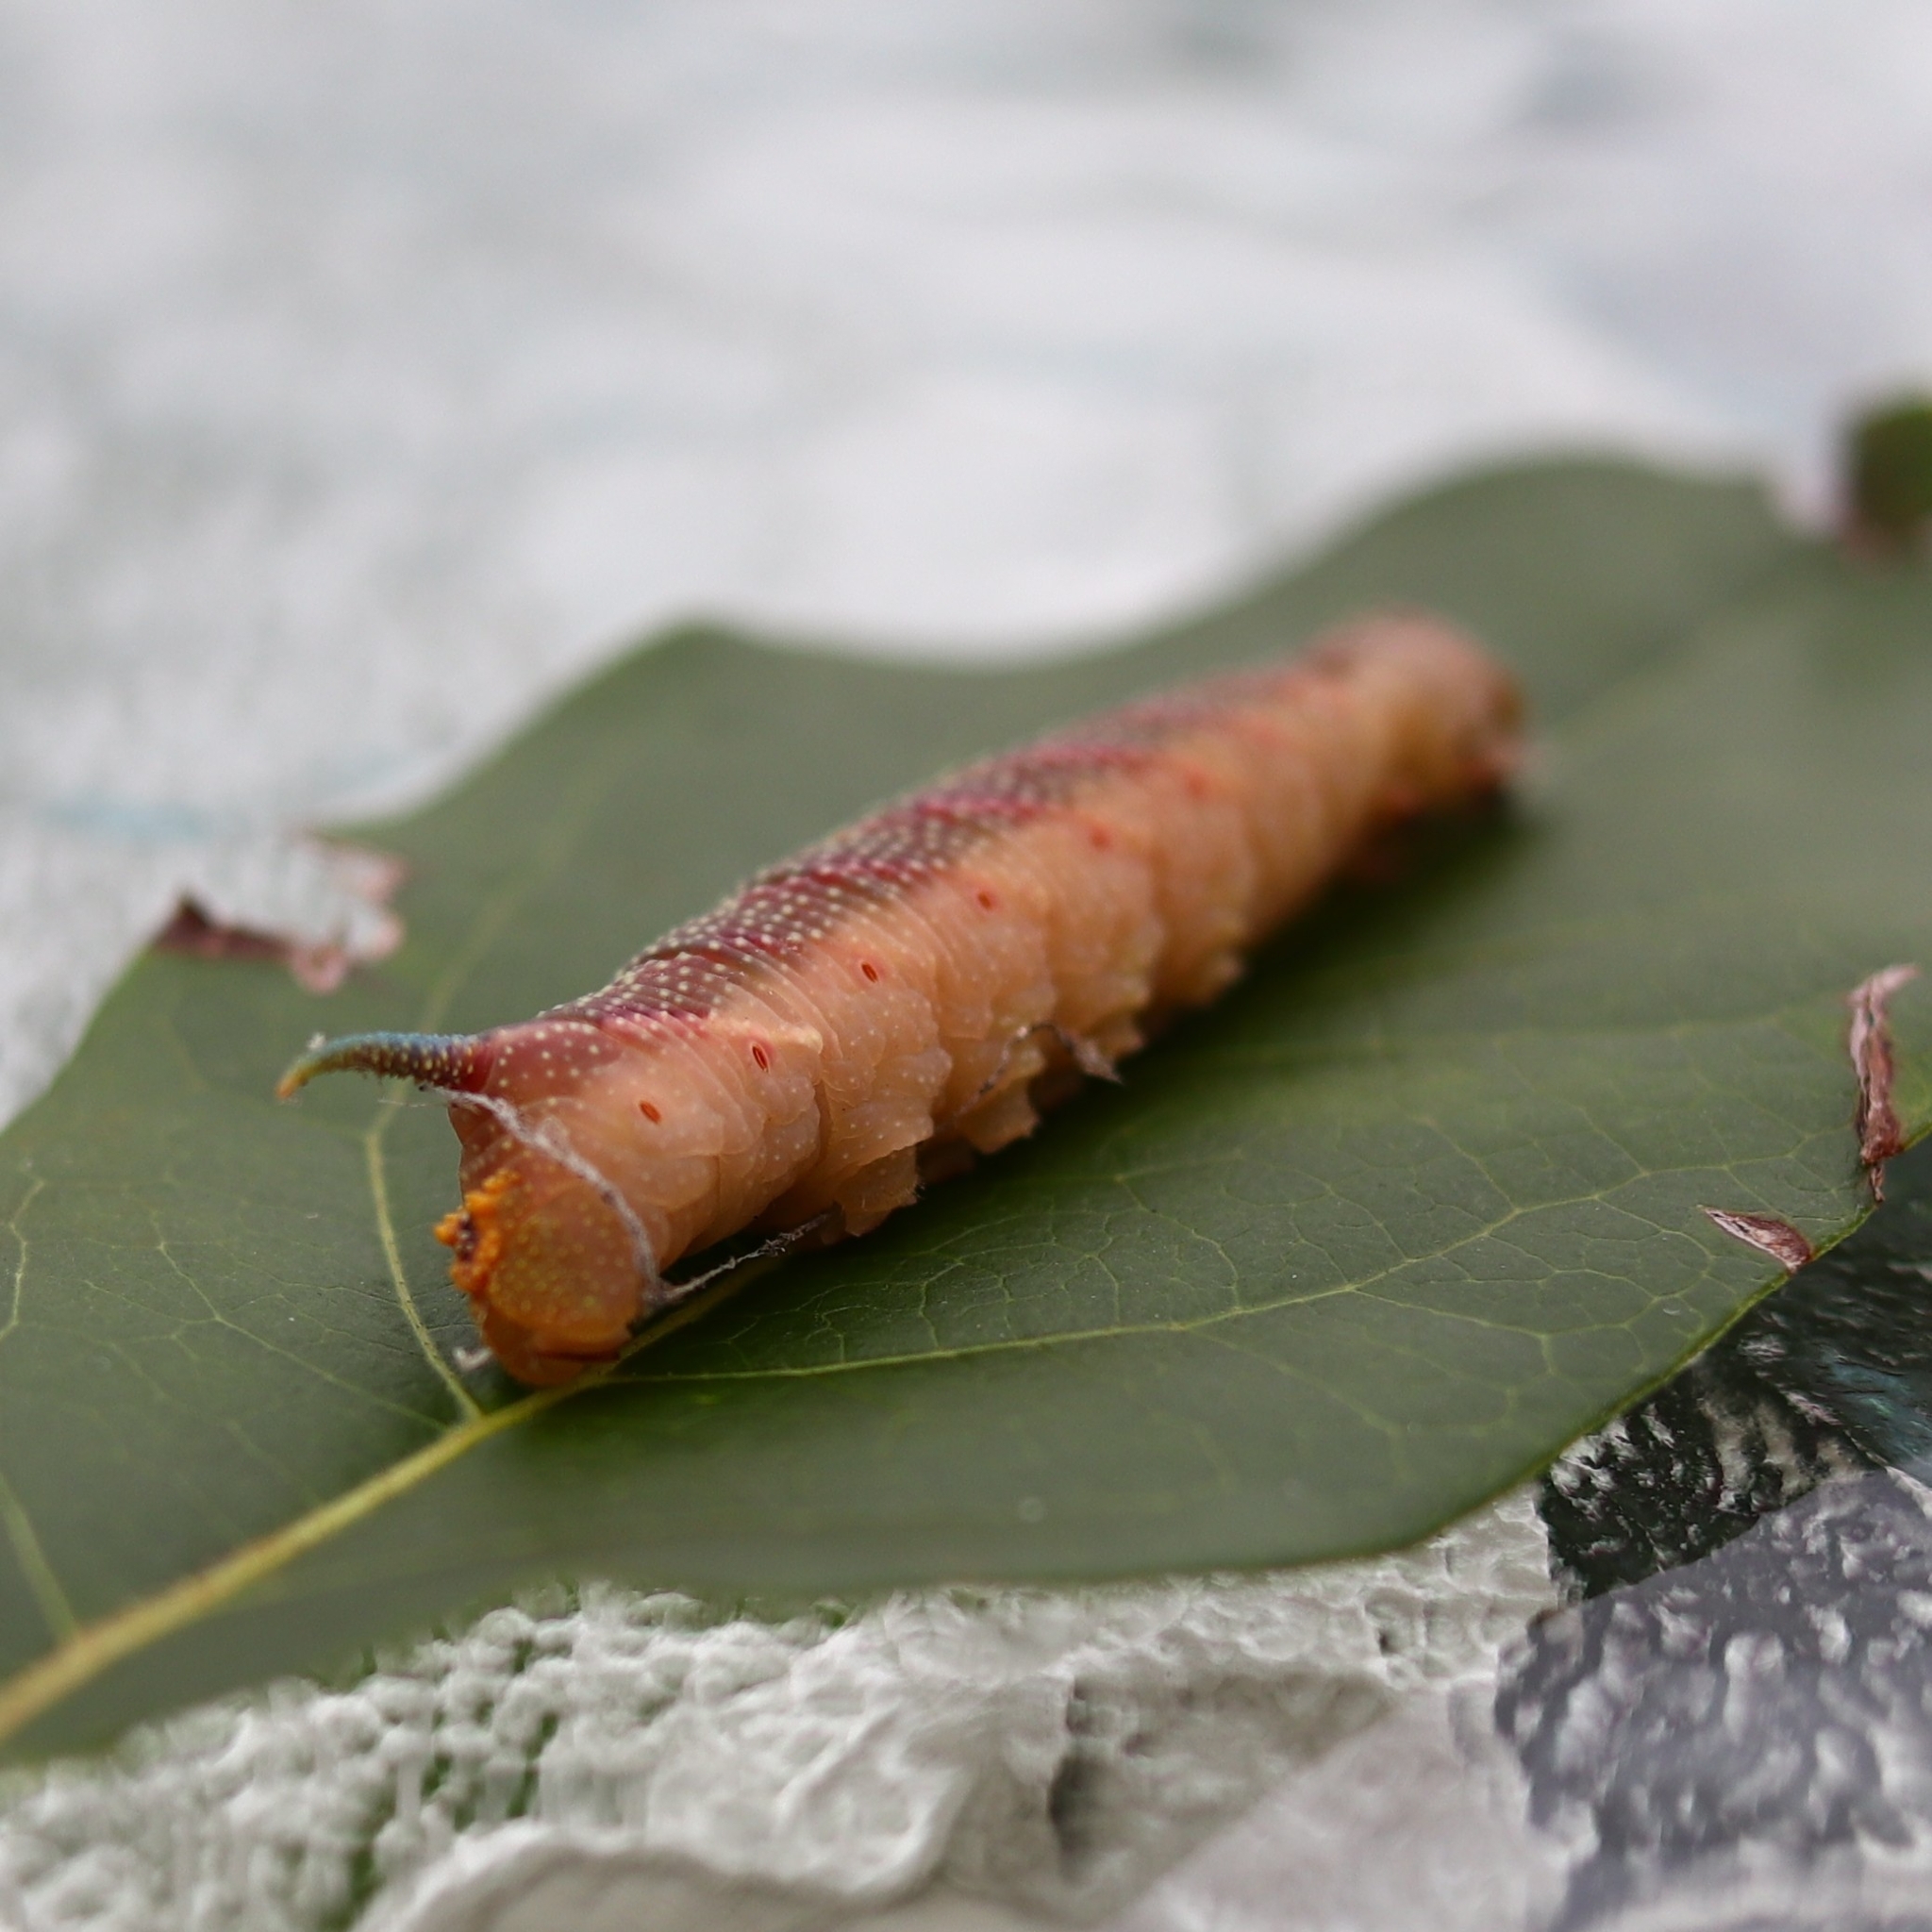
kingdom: Animalia
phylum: Arthropoda
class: Insecta
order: Lepidoptera
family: Sphingidae
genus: Mimas
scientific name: Mimas tiliae
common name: Lime hawk-moth
